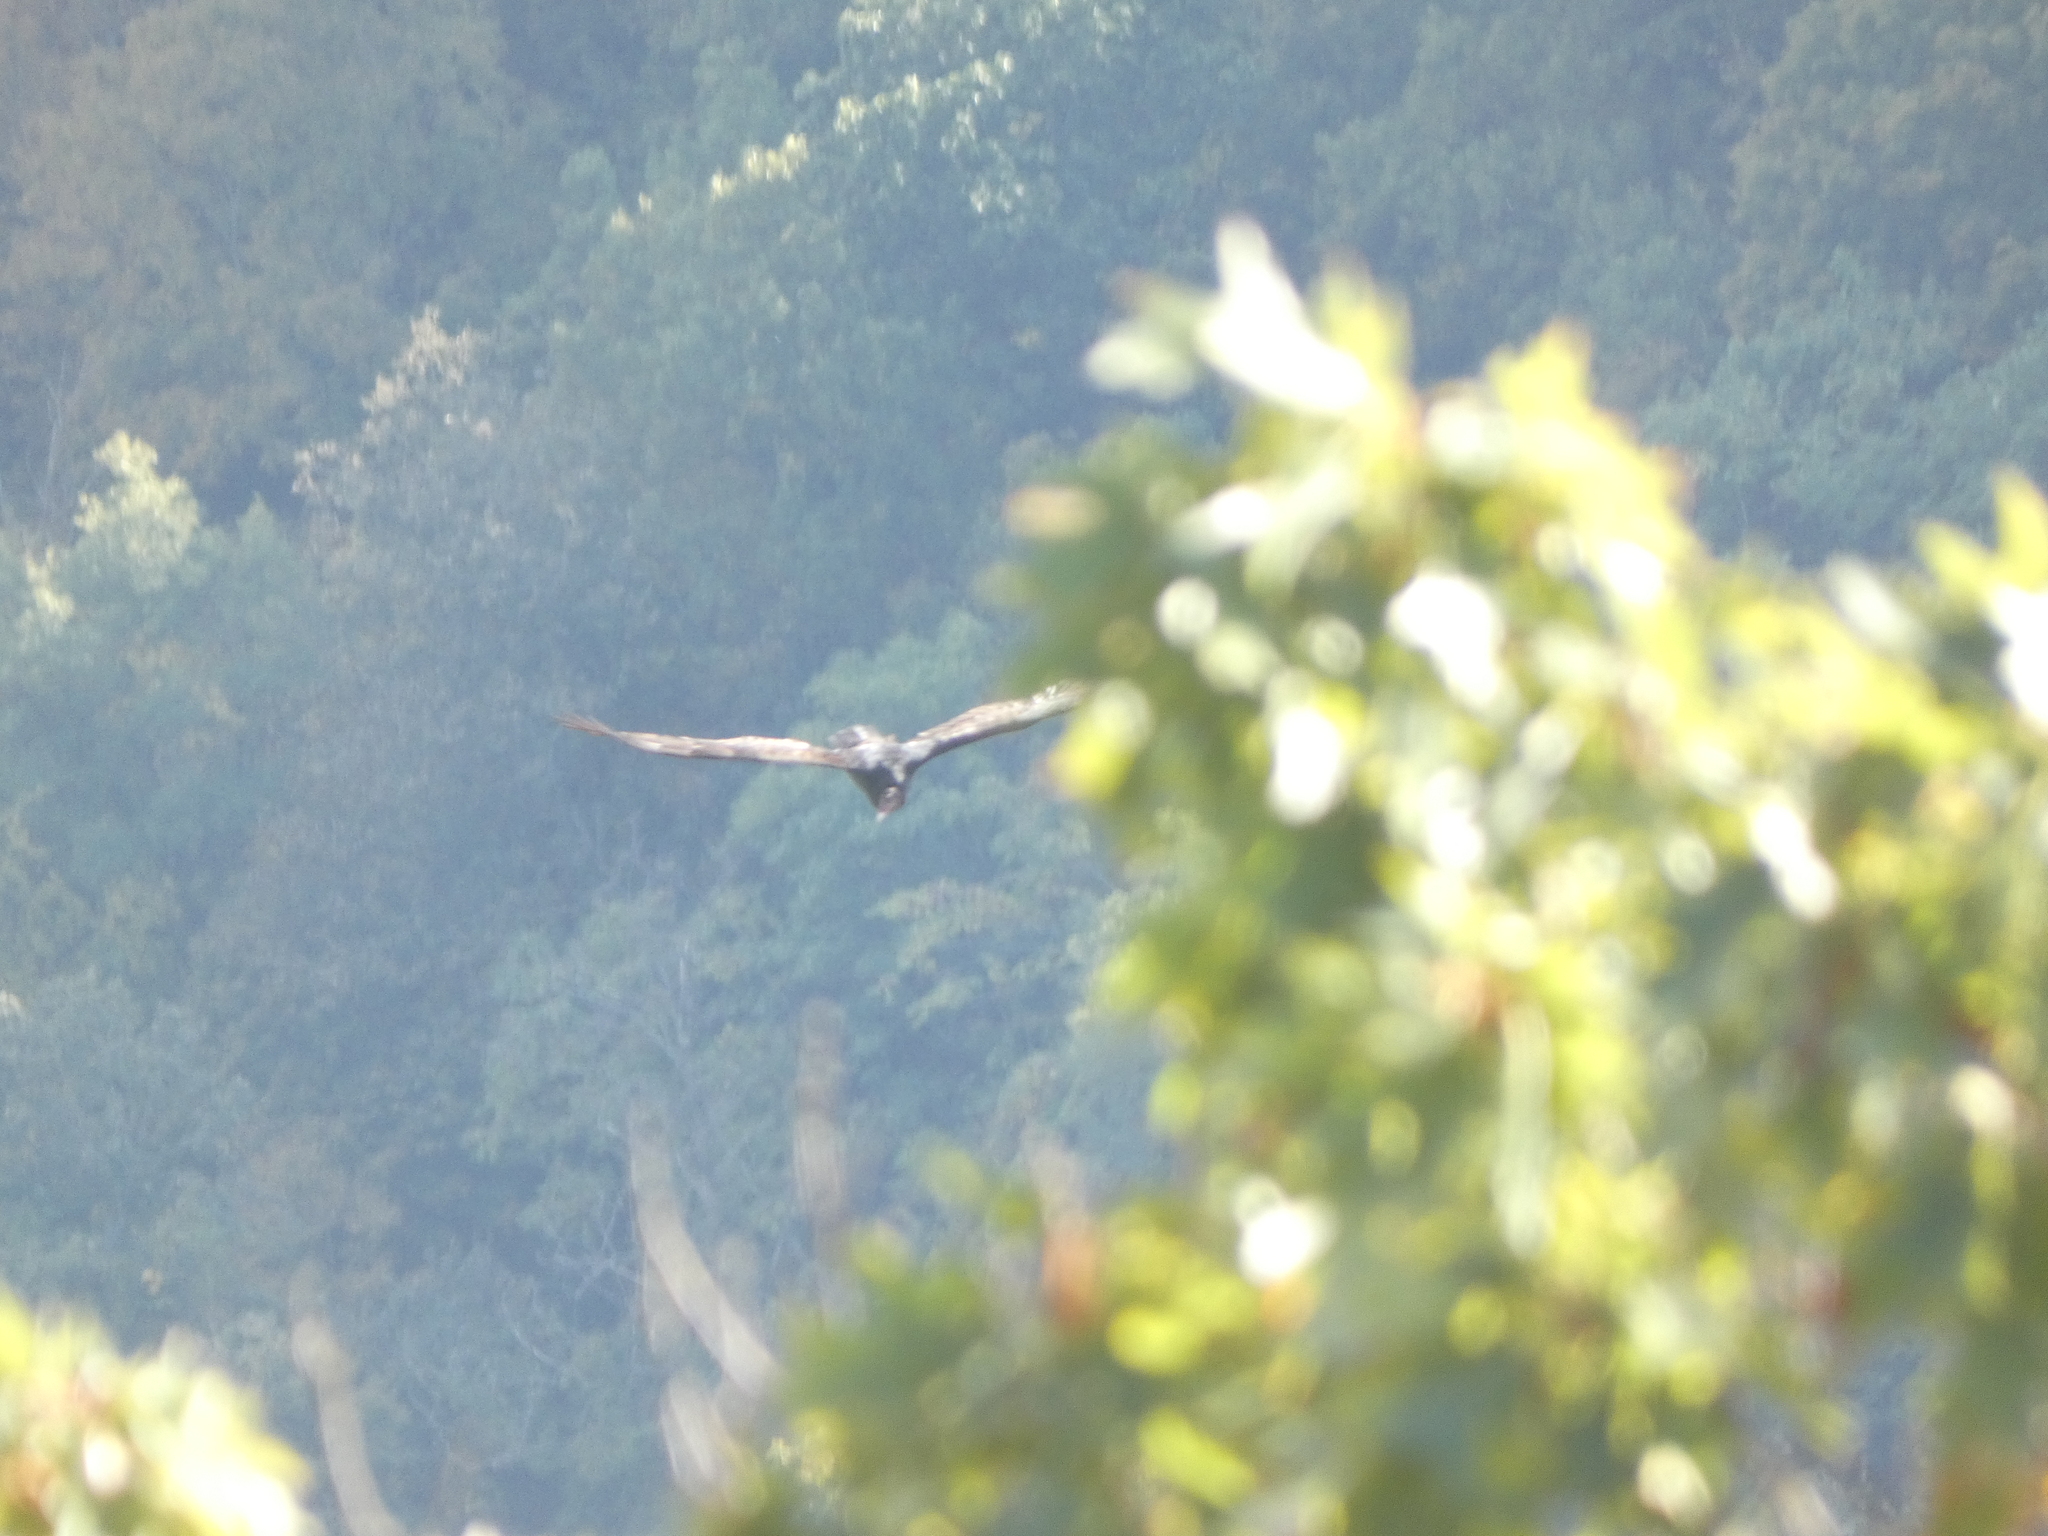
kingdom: Animalia
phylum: Chordata
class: Aves
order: Accipitriformes
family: Cathartidae
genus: Cathartes
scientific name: Cathartes aura
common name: Turkey vulture
